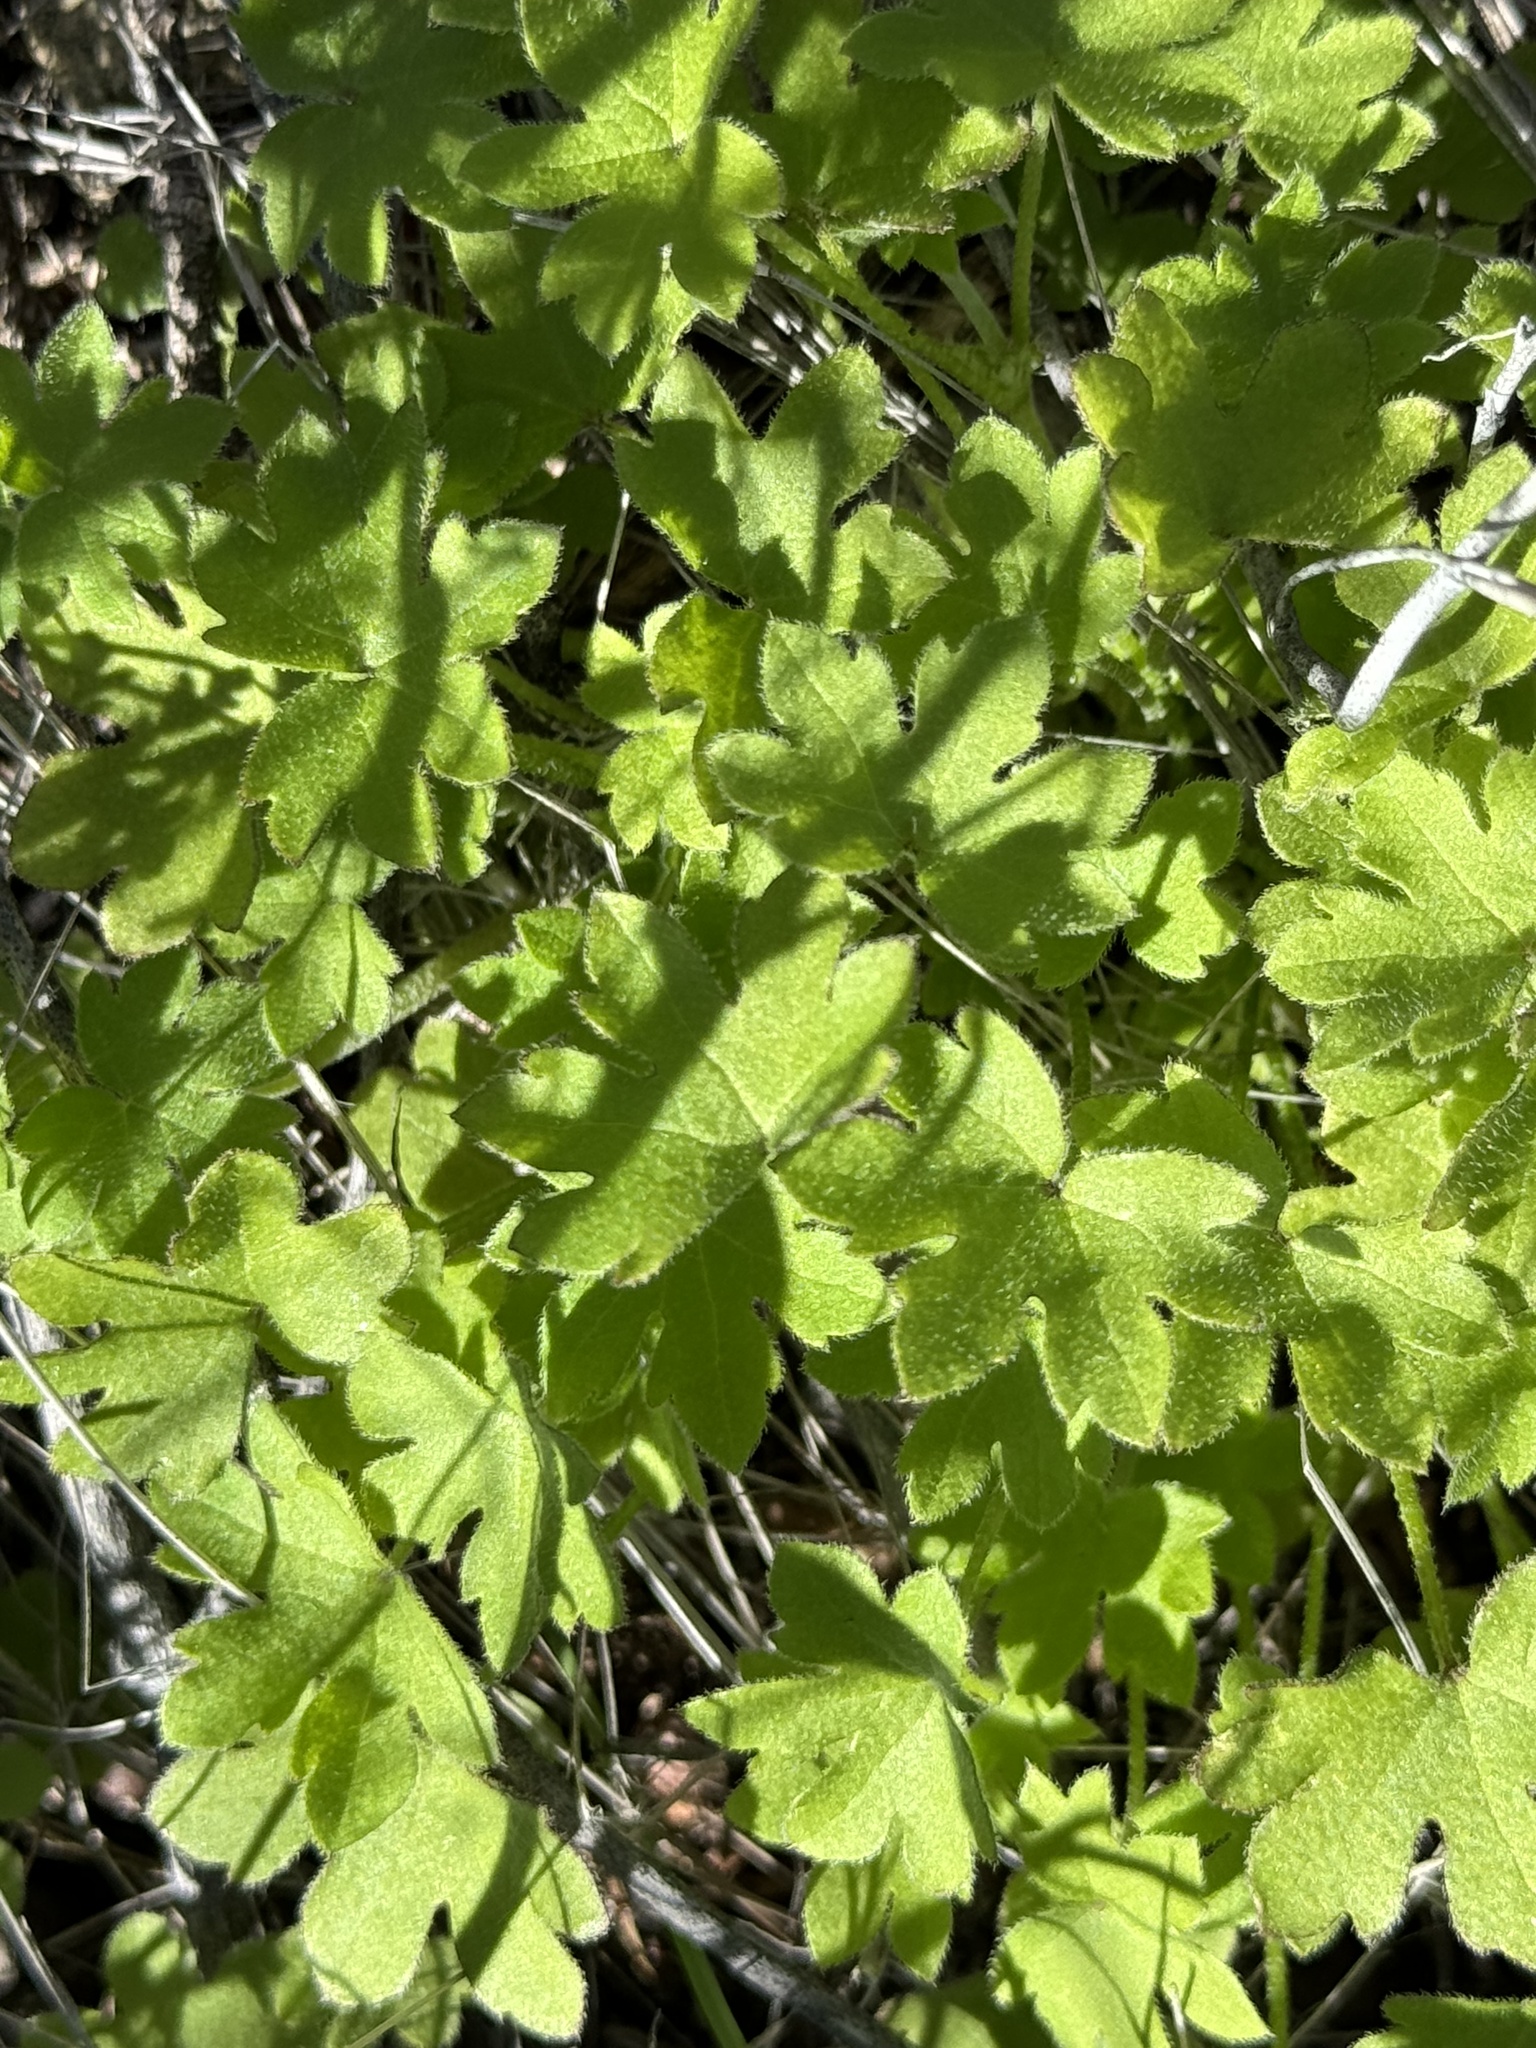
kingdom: Plantae
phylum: Tracheophyta
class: Magnoliopsida
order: Apiales
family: Apiaceae
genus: Bowlesia
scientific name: Bowlesia incana
